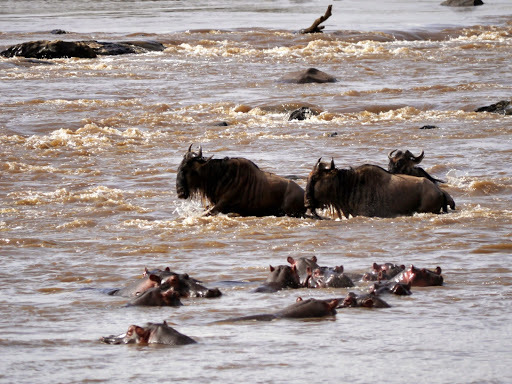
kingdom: Animalia
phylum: Chordata
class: Mammalia
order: Artiodactyla
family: Bovidae
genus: Connochaetes
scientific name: Connochaetes taurinus
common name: Blue wildebeest
